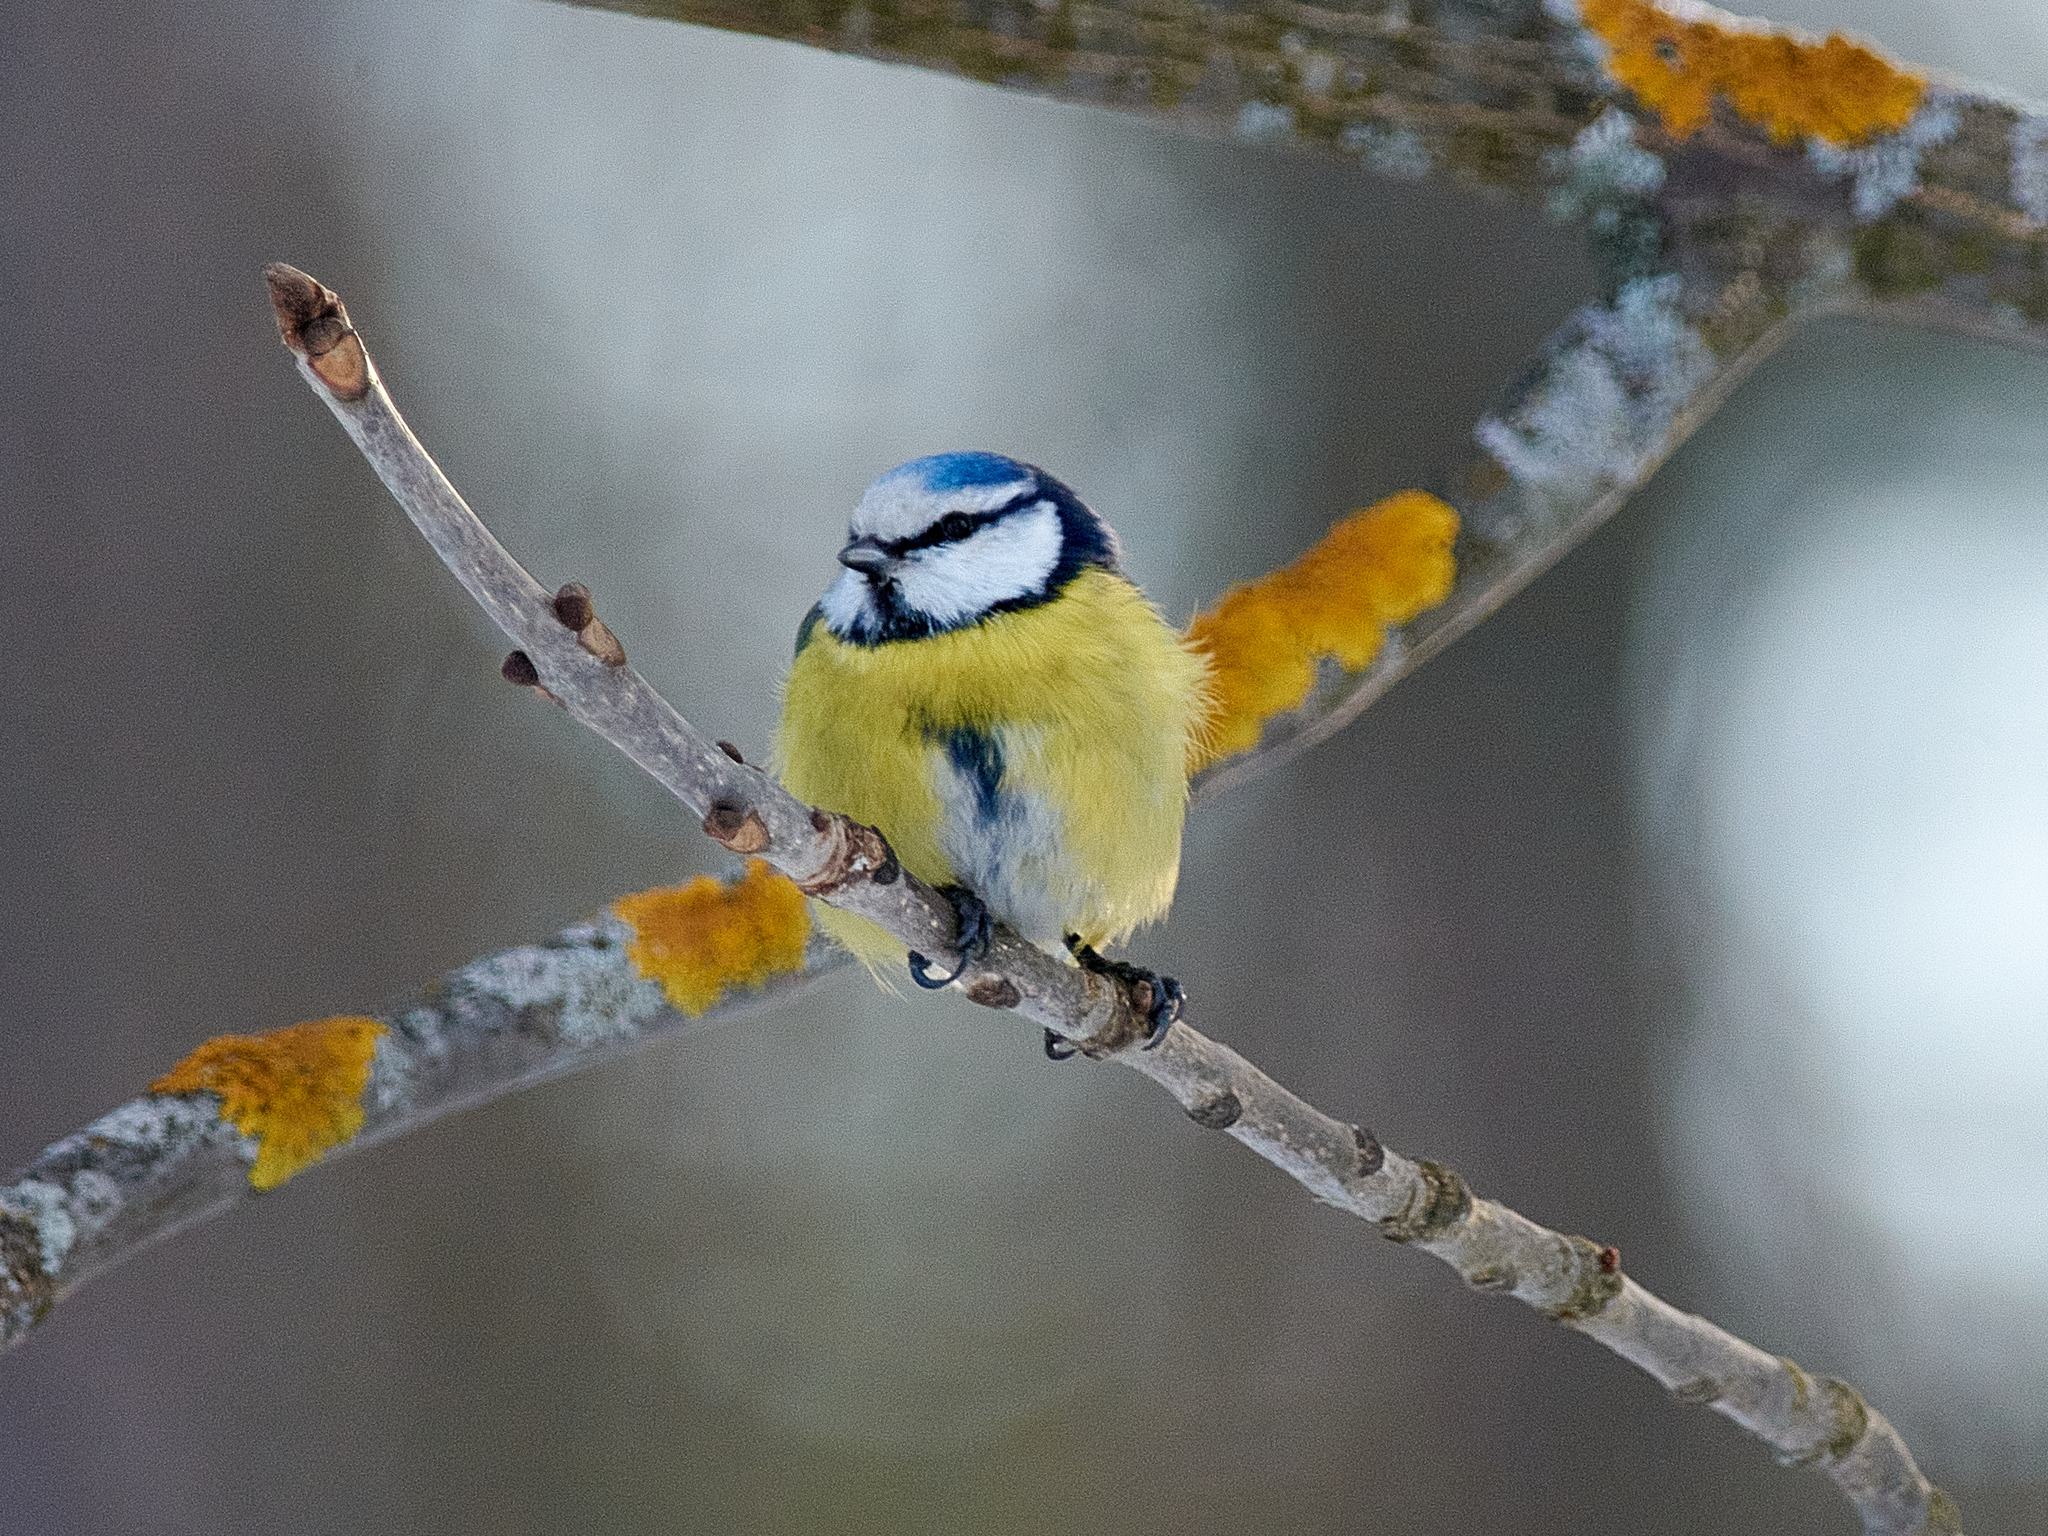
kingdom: Animalia
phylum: Chordata
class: Aves
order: Passeriformes
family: Paridae
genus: Cyanistes
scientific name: Cyanistes caeruleus
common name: Eurasian blue tit
